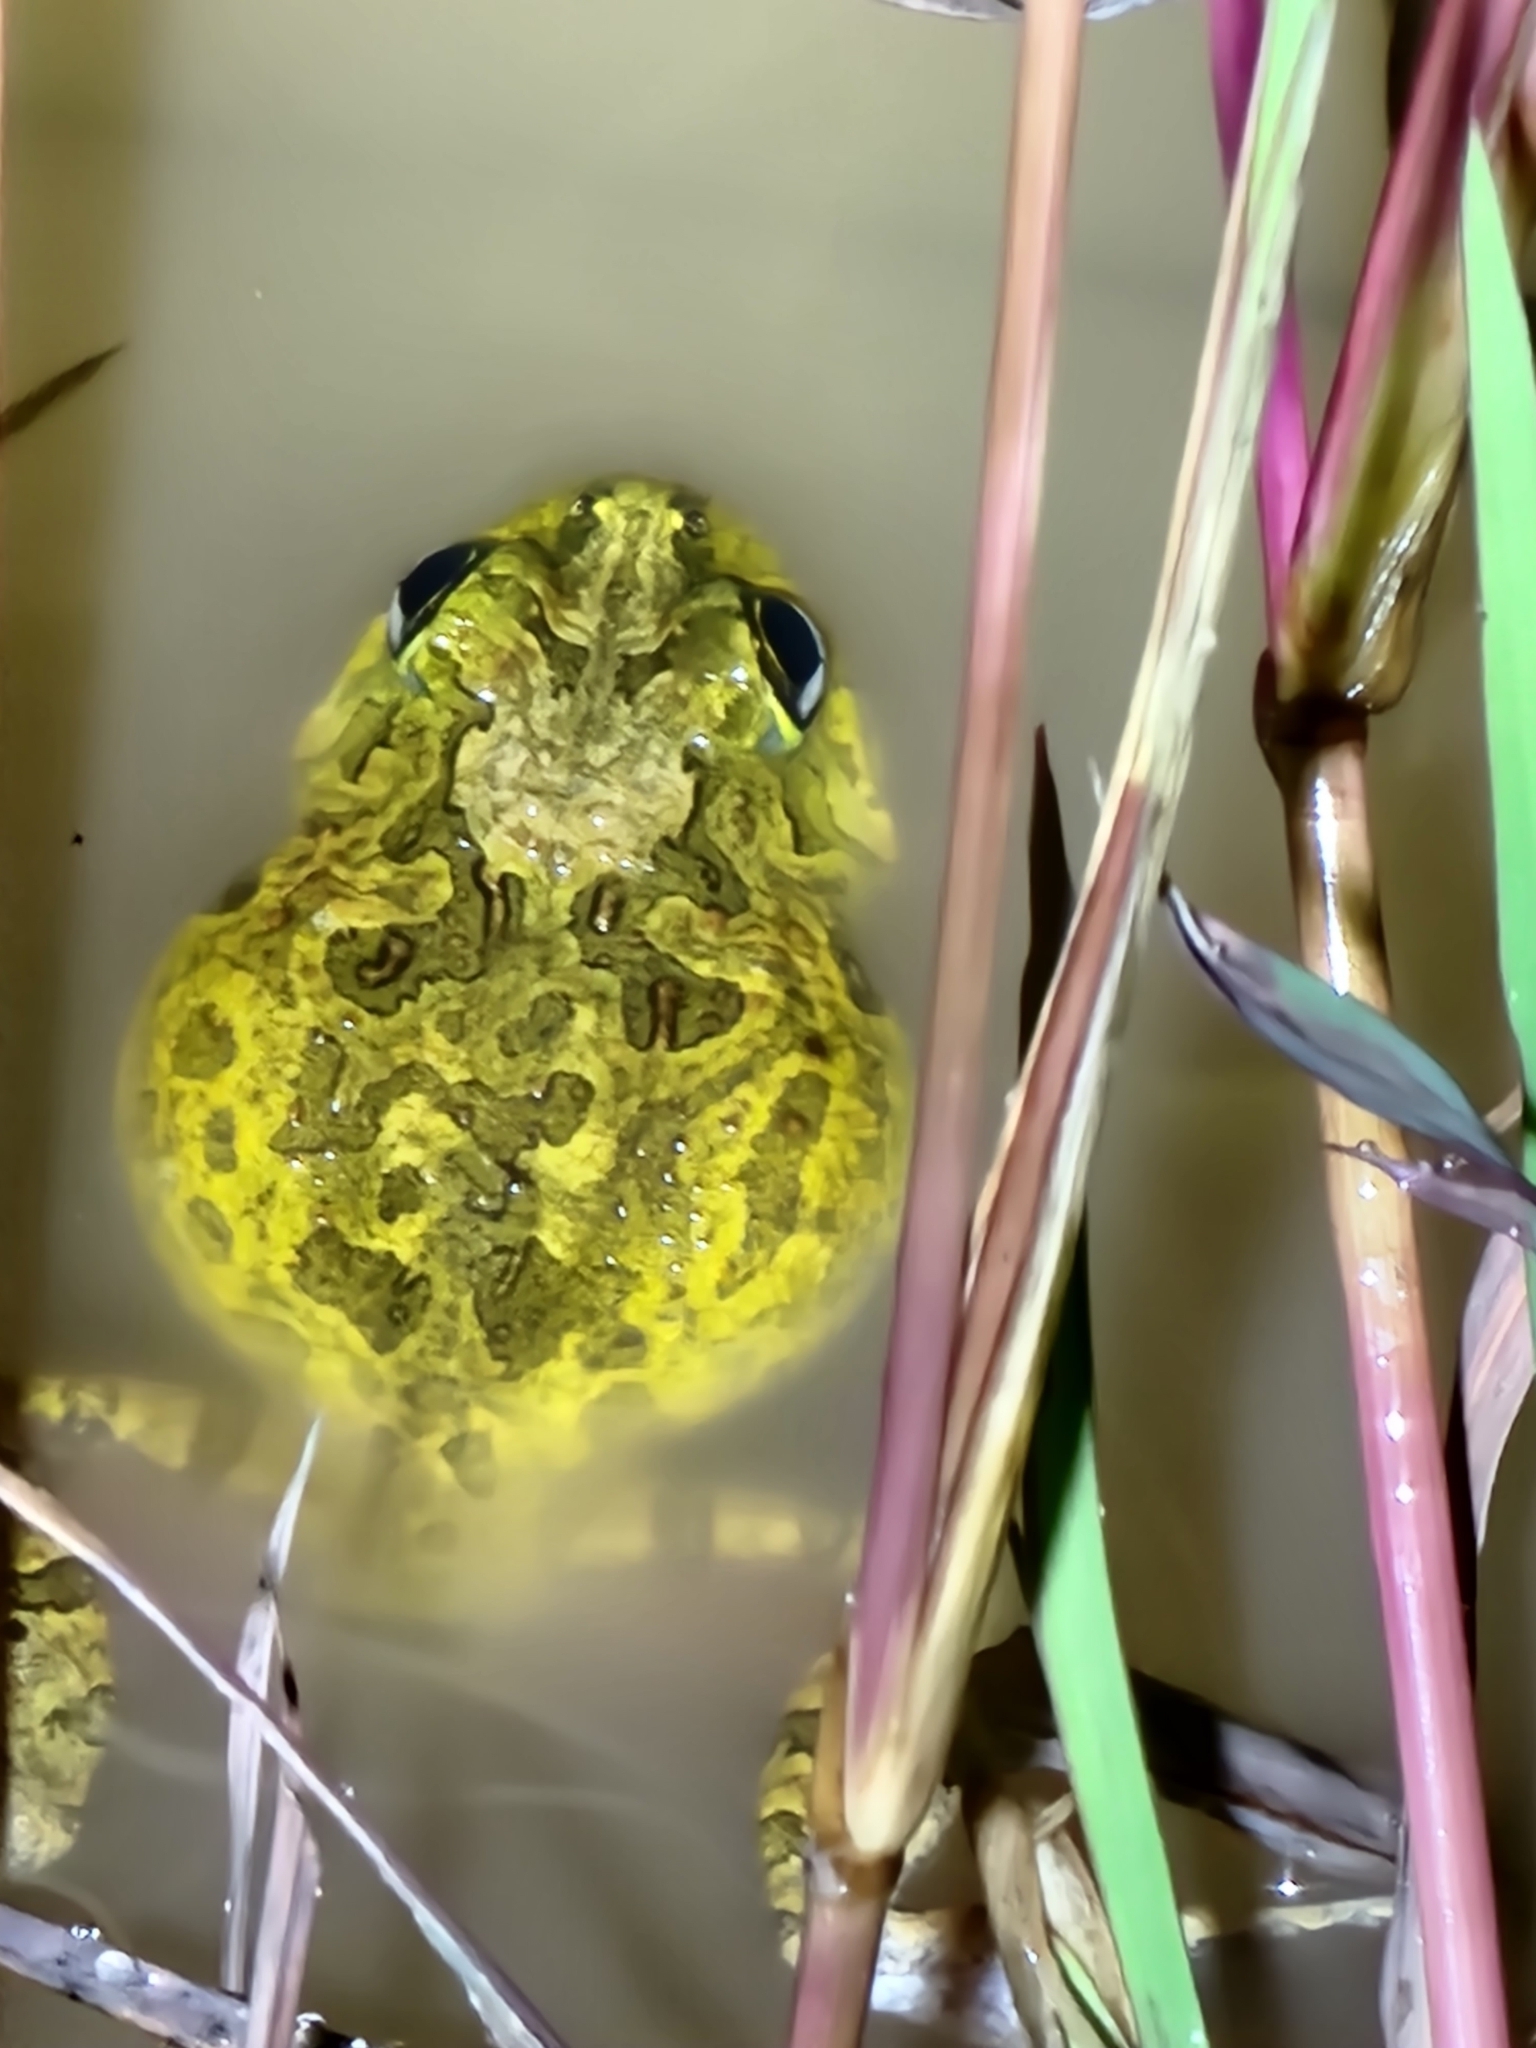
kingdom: Animalia
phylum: Chordata
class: Amphibia
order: Anura
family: Limnodynastidae
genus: Platyplectrum
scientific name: Platyplectrum ornatum
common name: Ornate burrowing frog
